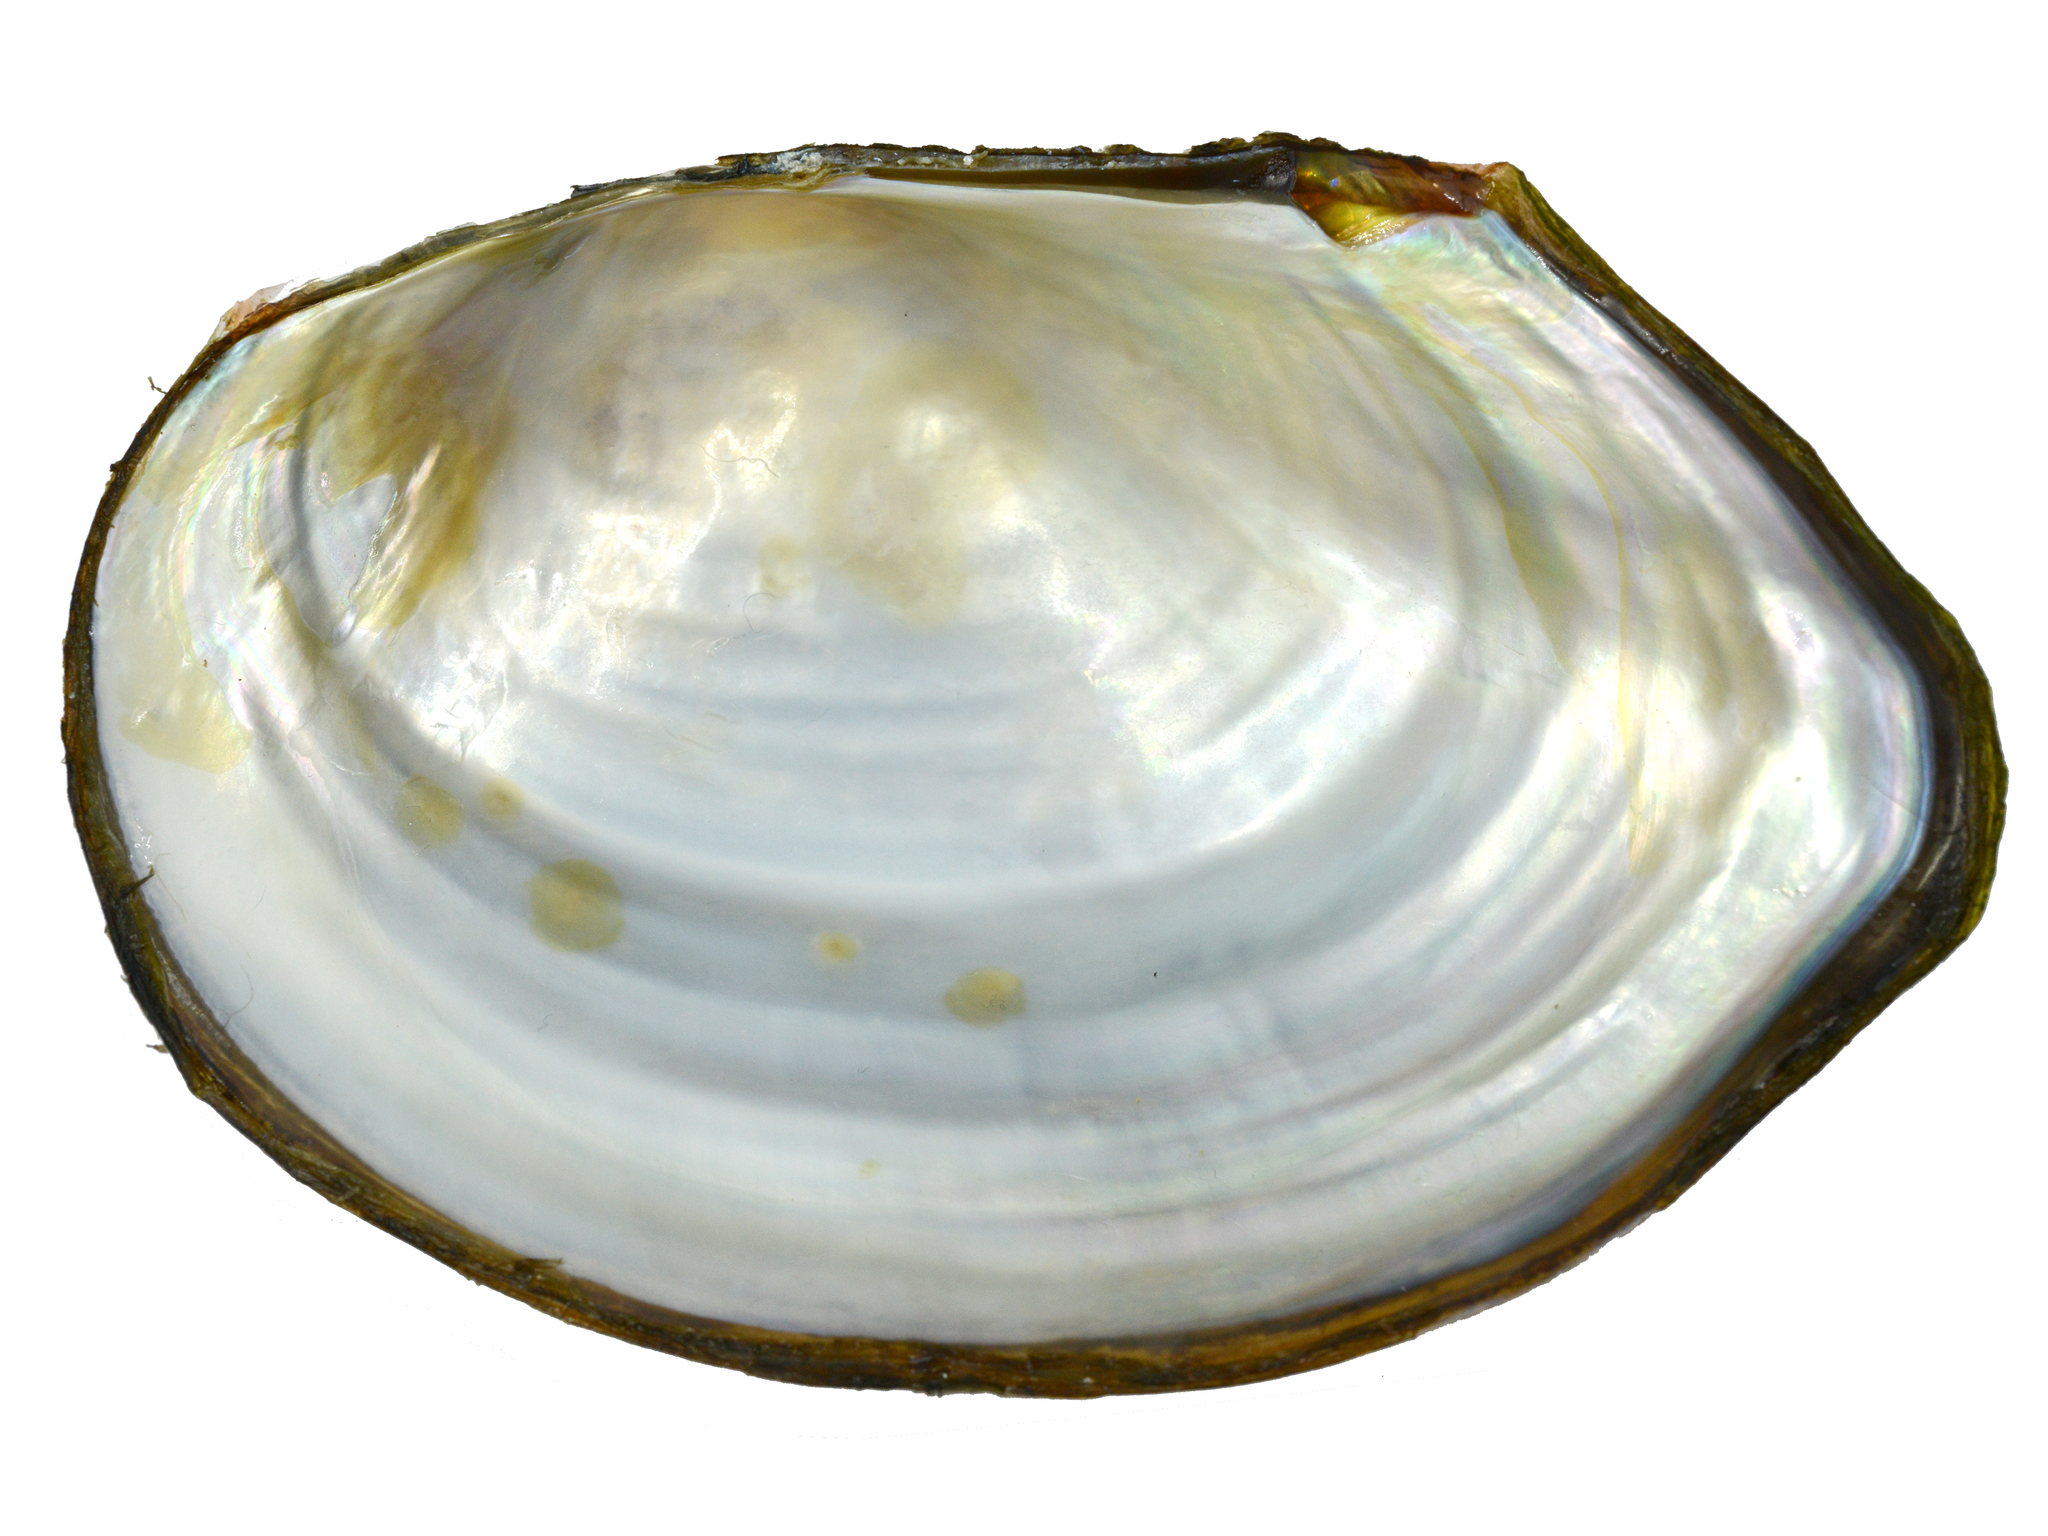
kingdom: Animalia
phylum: Mollusca
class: Bivalvia
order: Unionida
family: Unionidae
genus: Sinanodonta
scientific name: Sinanodonta lauta
